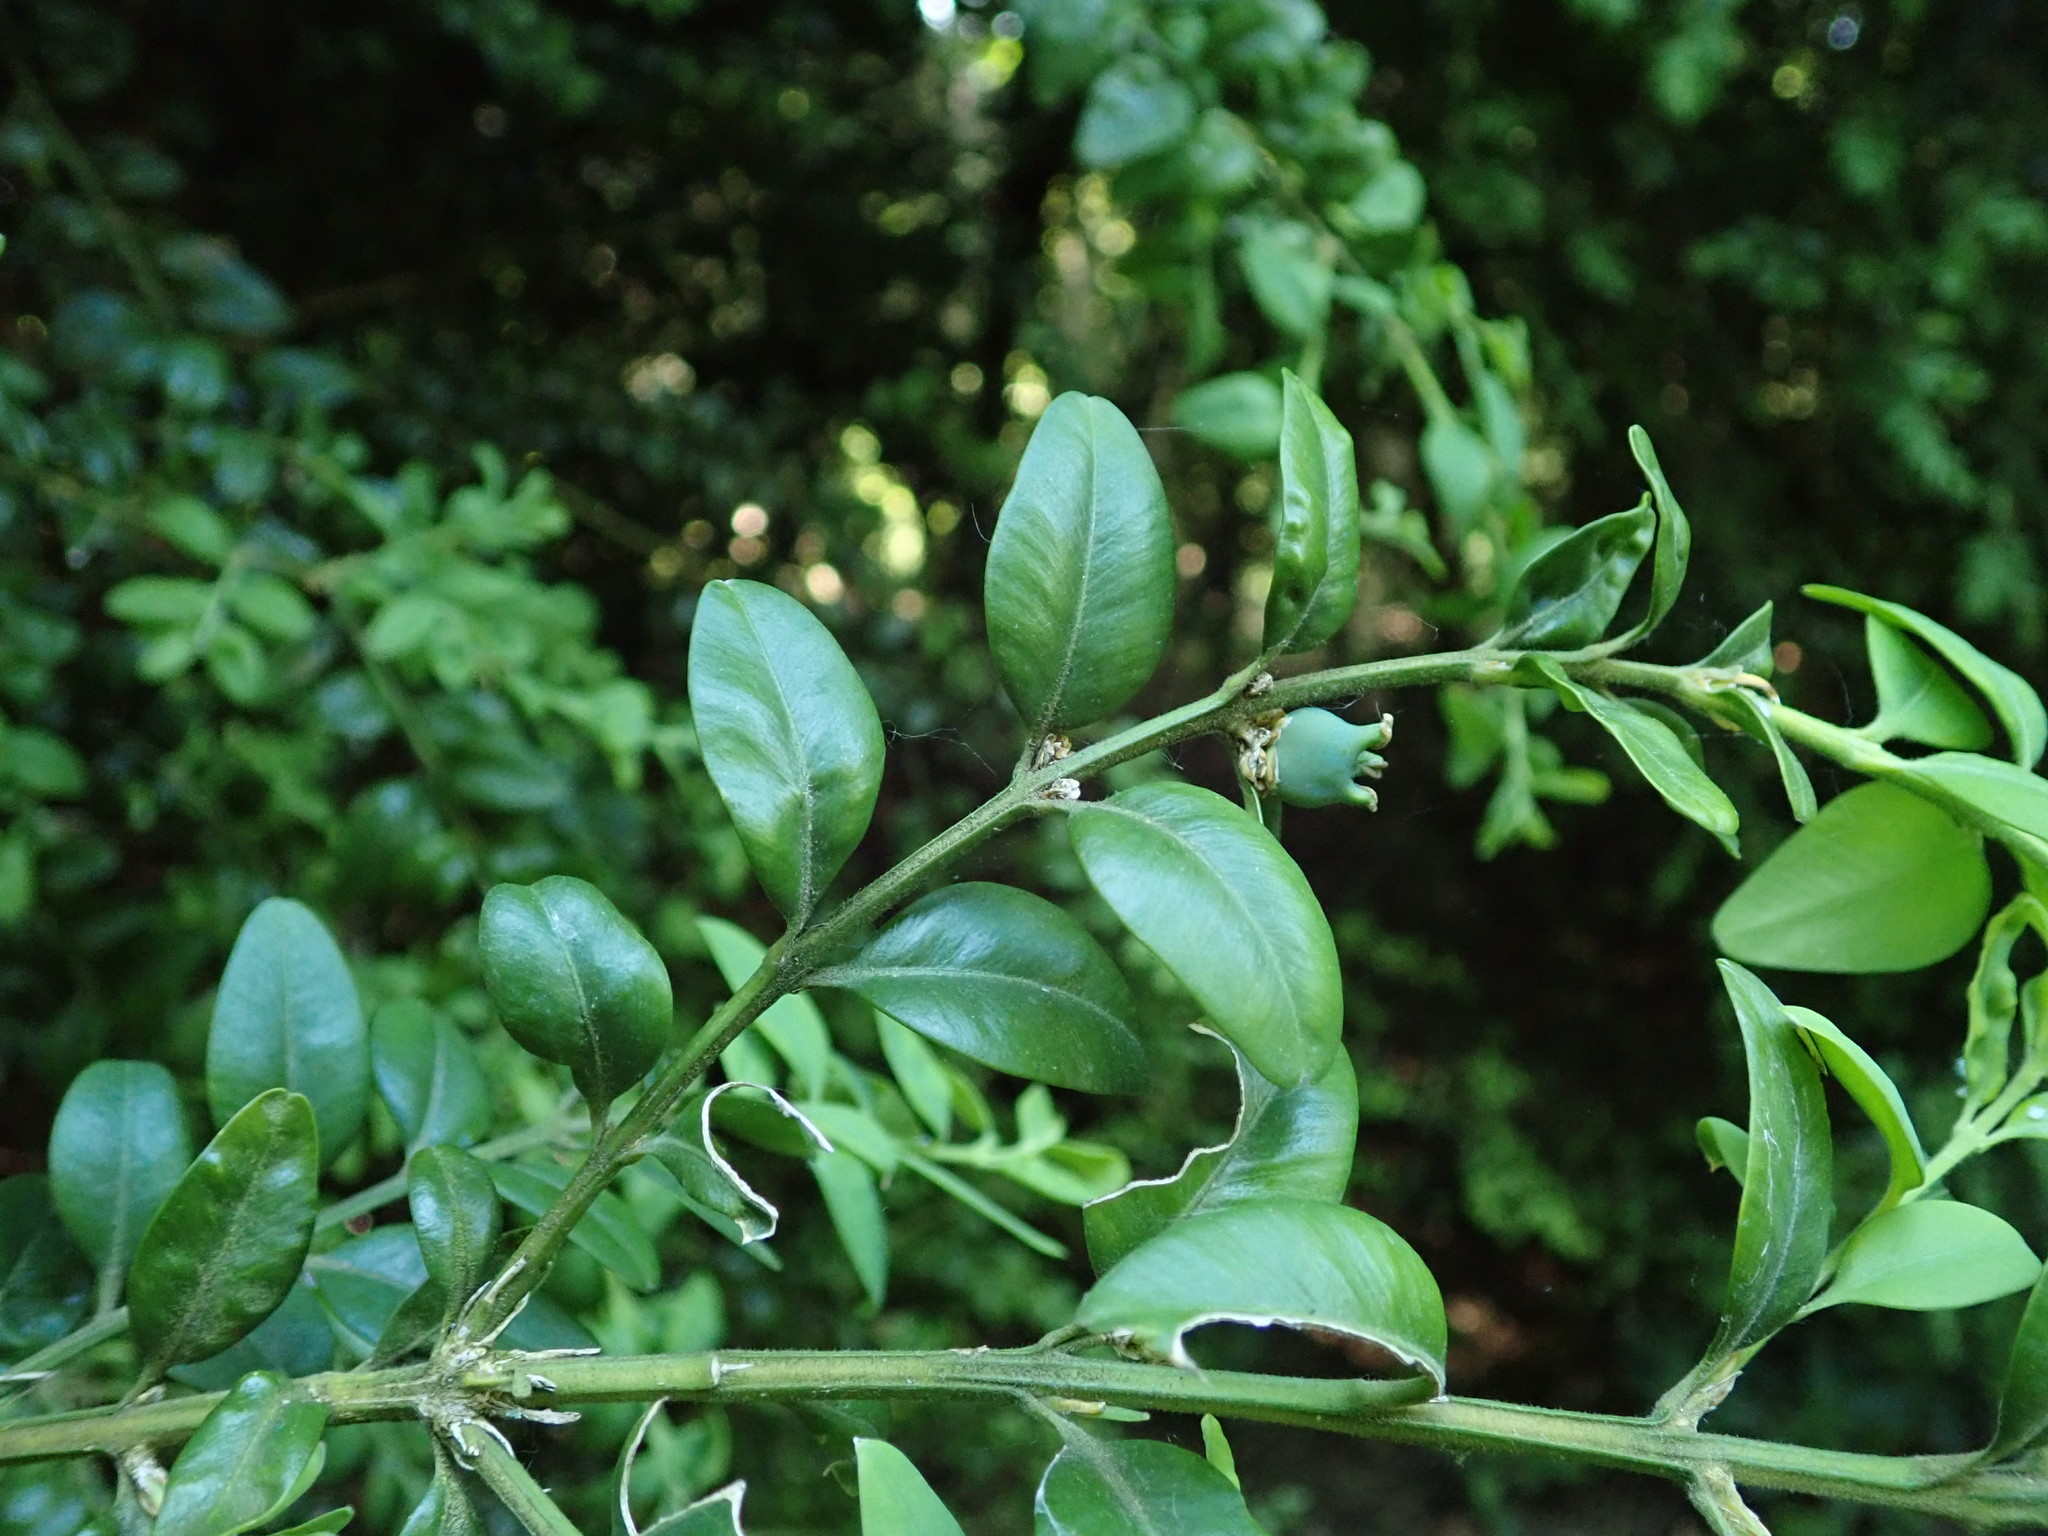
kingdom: Plantae
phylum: Tracheophyta
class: Magnoliopsida
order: Buxales
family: Buxaceae
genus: Buxus
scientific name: Buxus sempervirens
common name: Box
